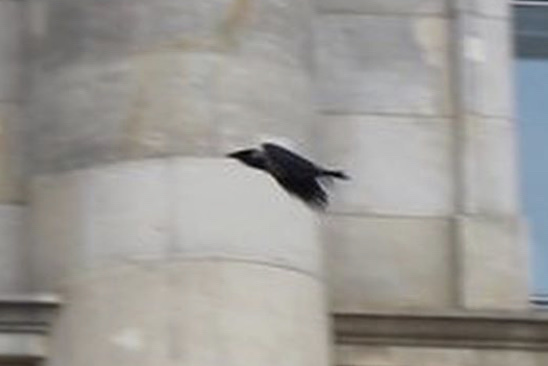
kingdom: Animalia
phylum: Chordata
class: Aves
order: Passeriformes
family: Corvidae
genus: Corvus
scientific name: Corvus cornix
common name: Hooded crow
